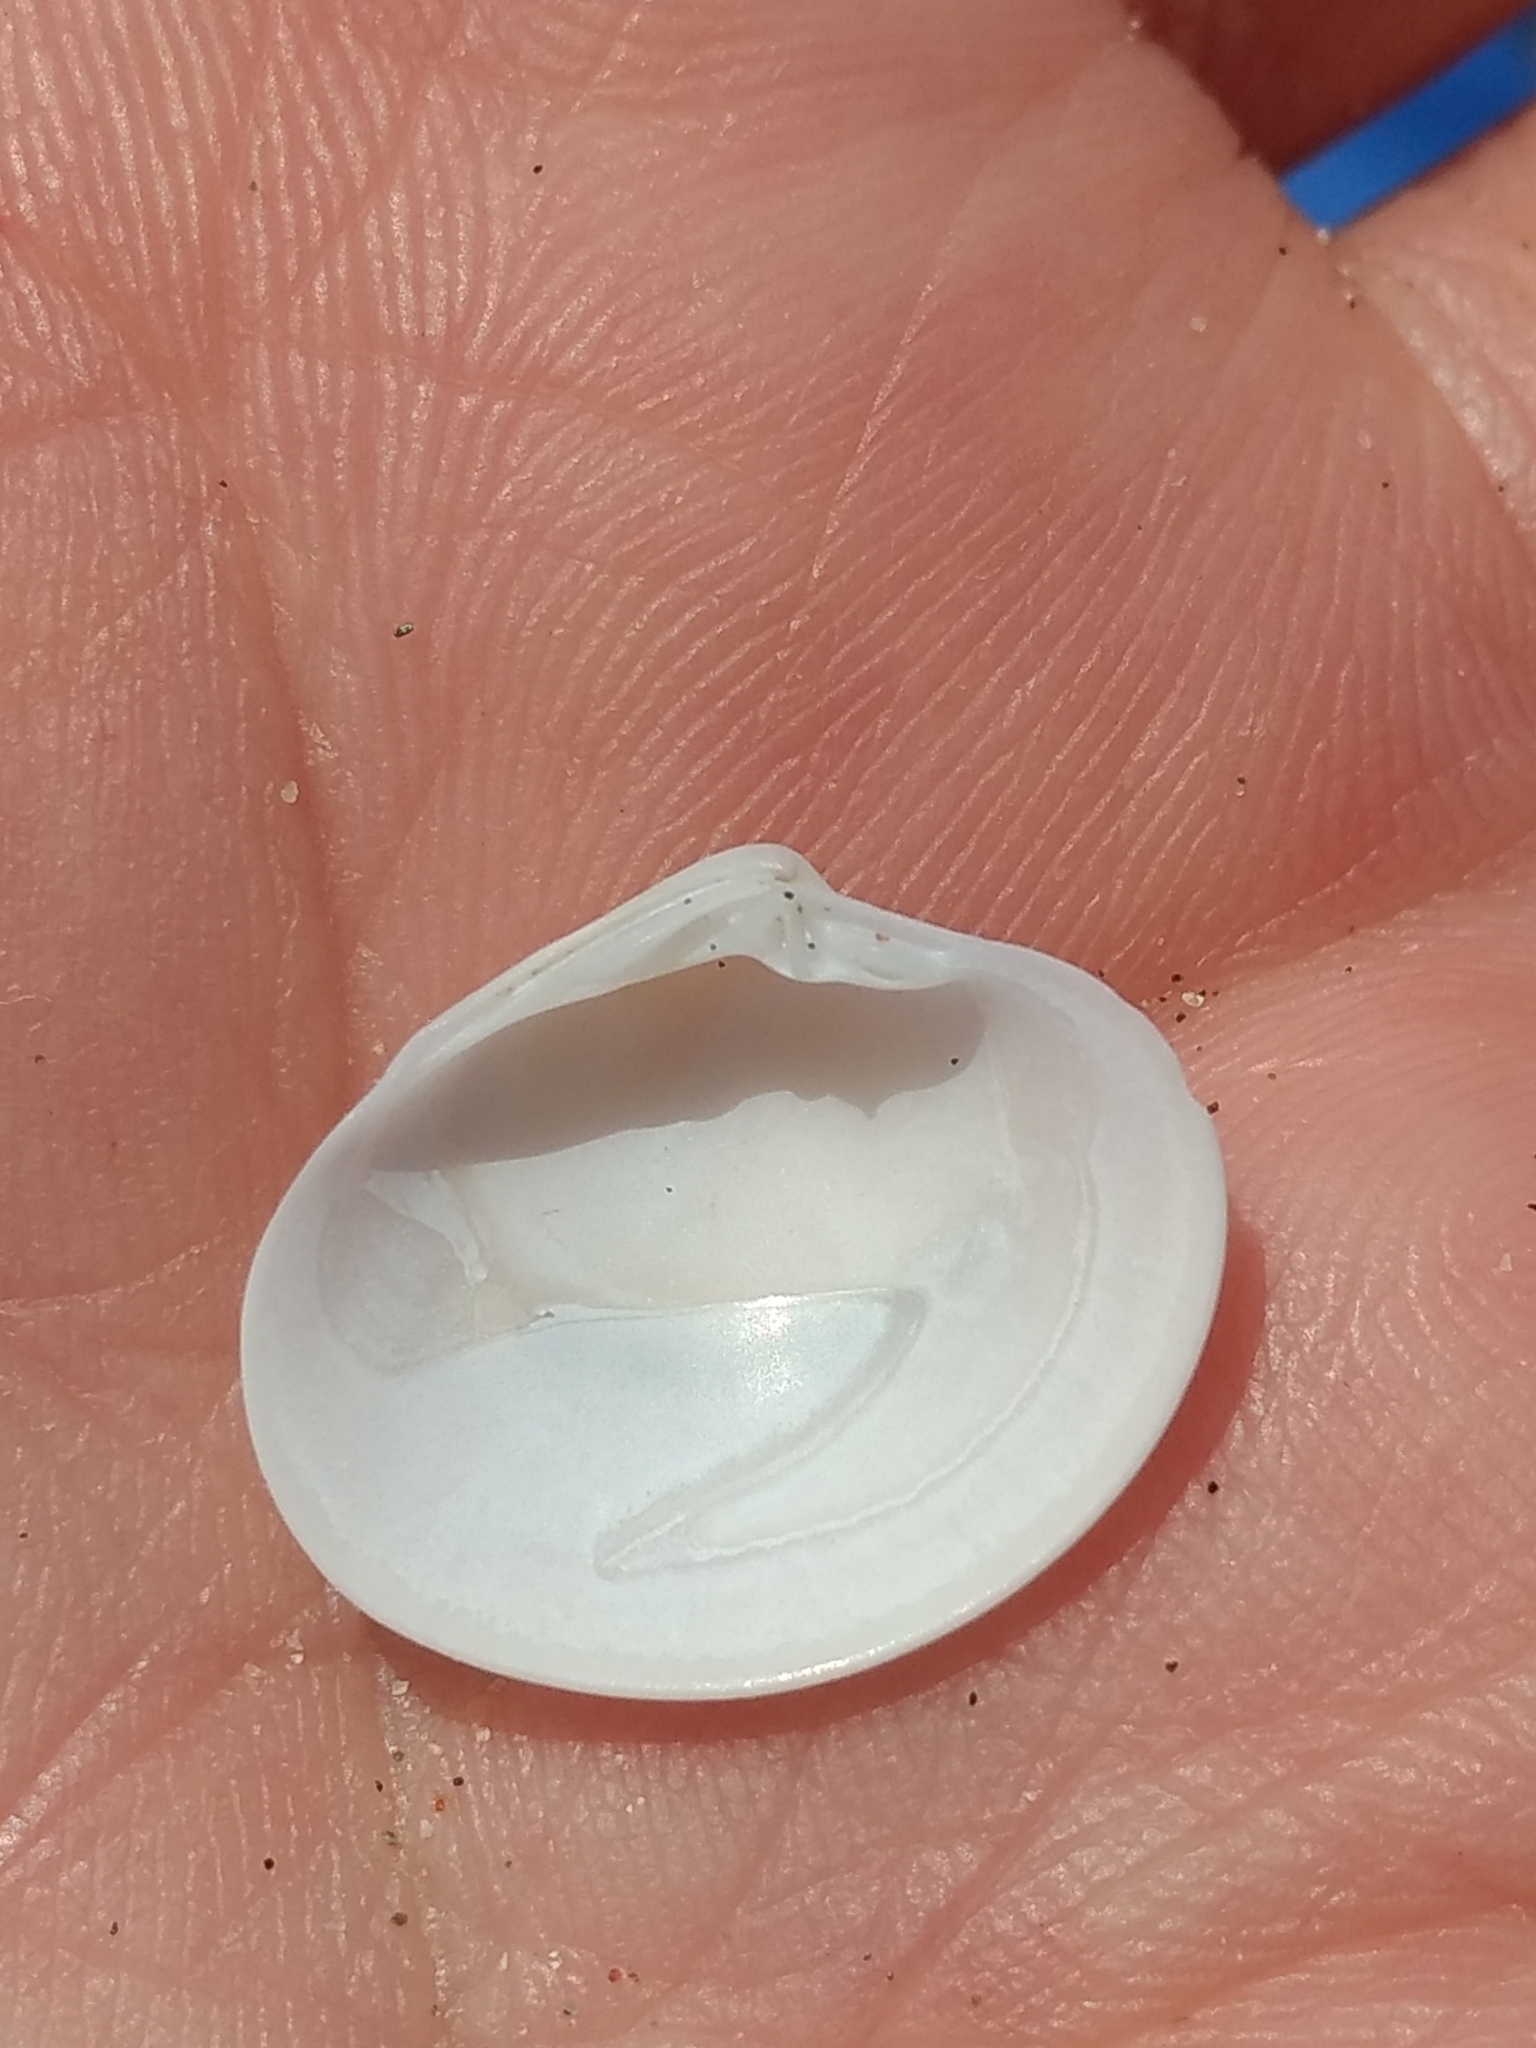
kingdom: Animalia
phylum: Mollusca
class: Bivalvia
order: Venerida
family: Veneridae
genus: Amiantis
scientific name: Amiantis callosa
